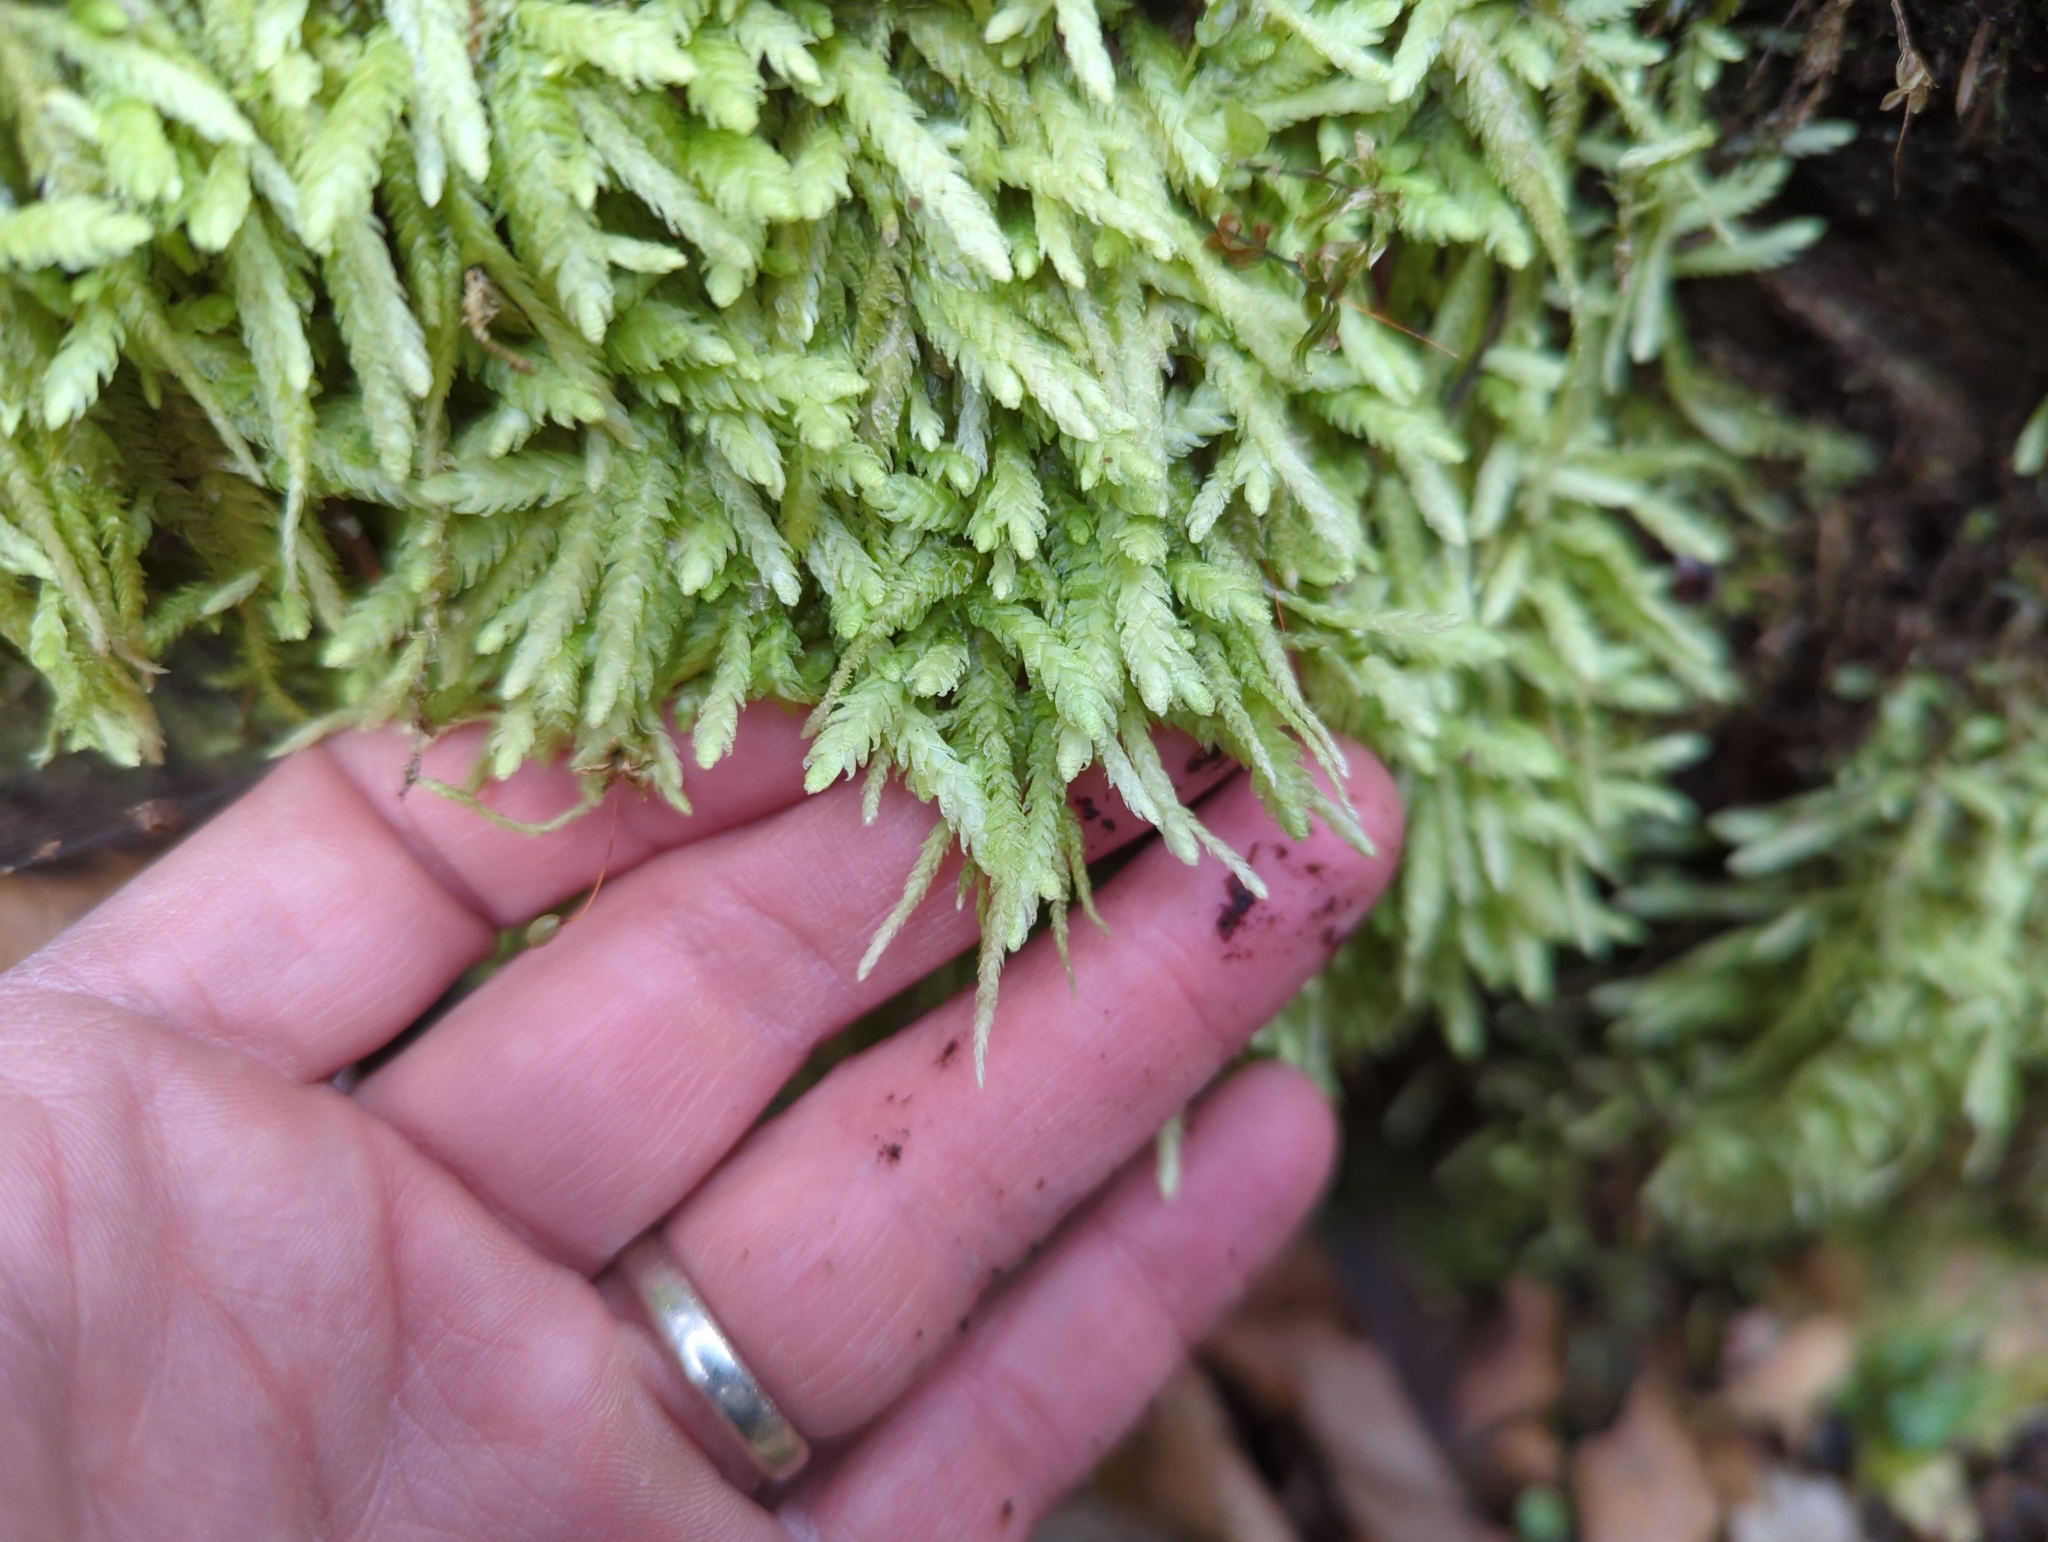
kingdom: Plantae
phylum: Bryophyta
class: Bryopsida
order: Hypnales
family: Plagiotheciaceae
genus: Plagiothecium
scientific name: Plagiothecium undulatum
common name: Waved silk-moss
